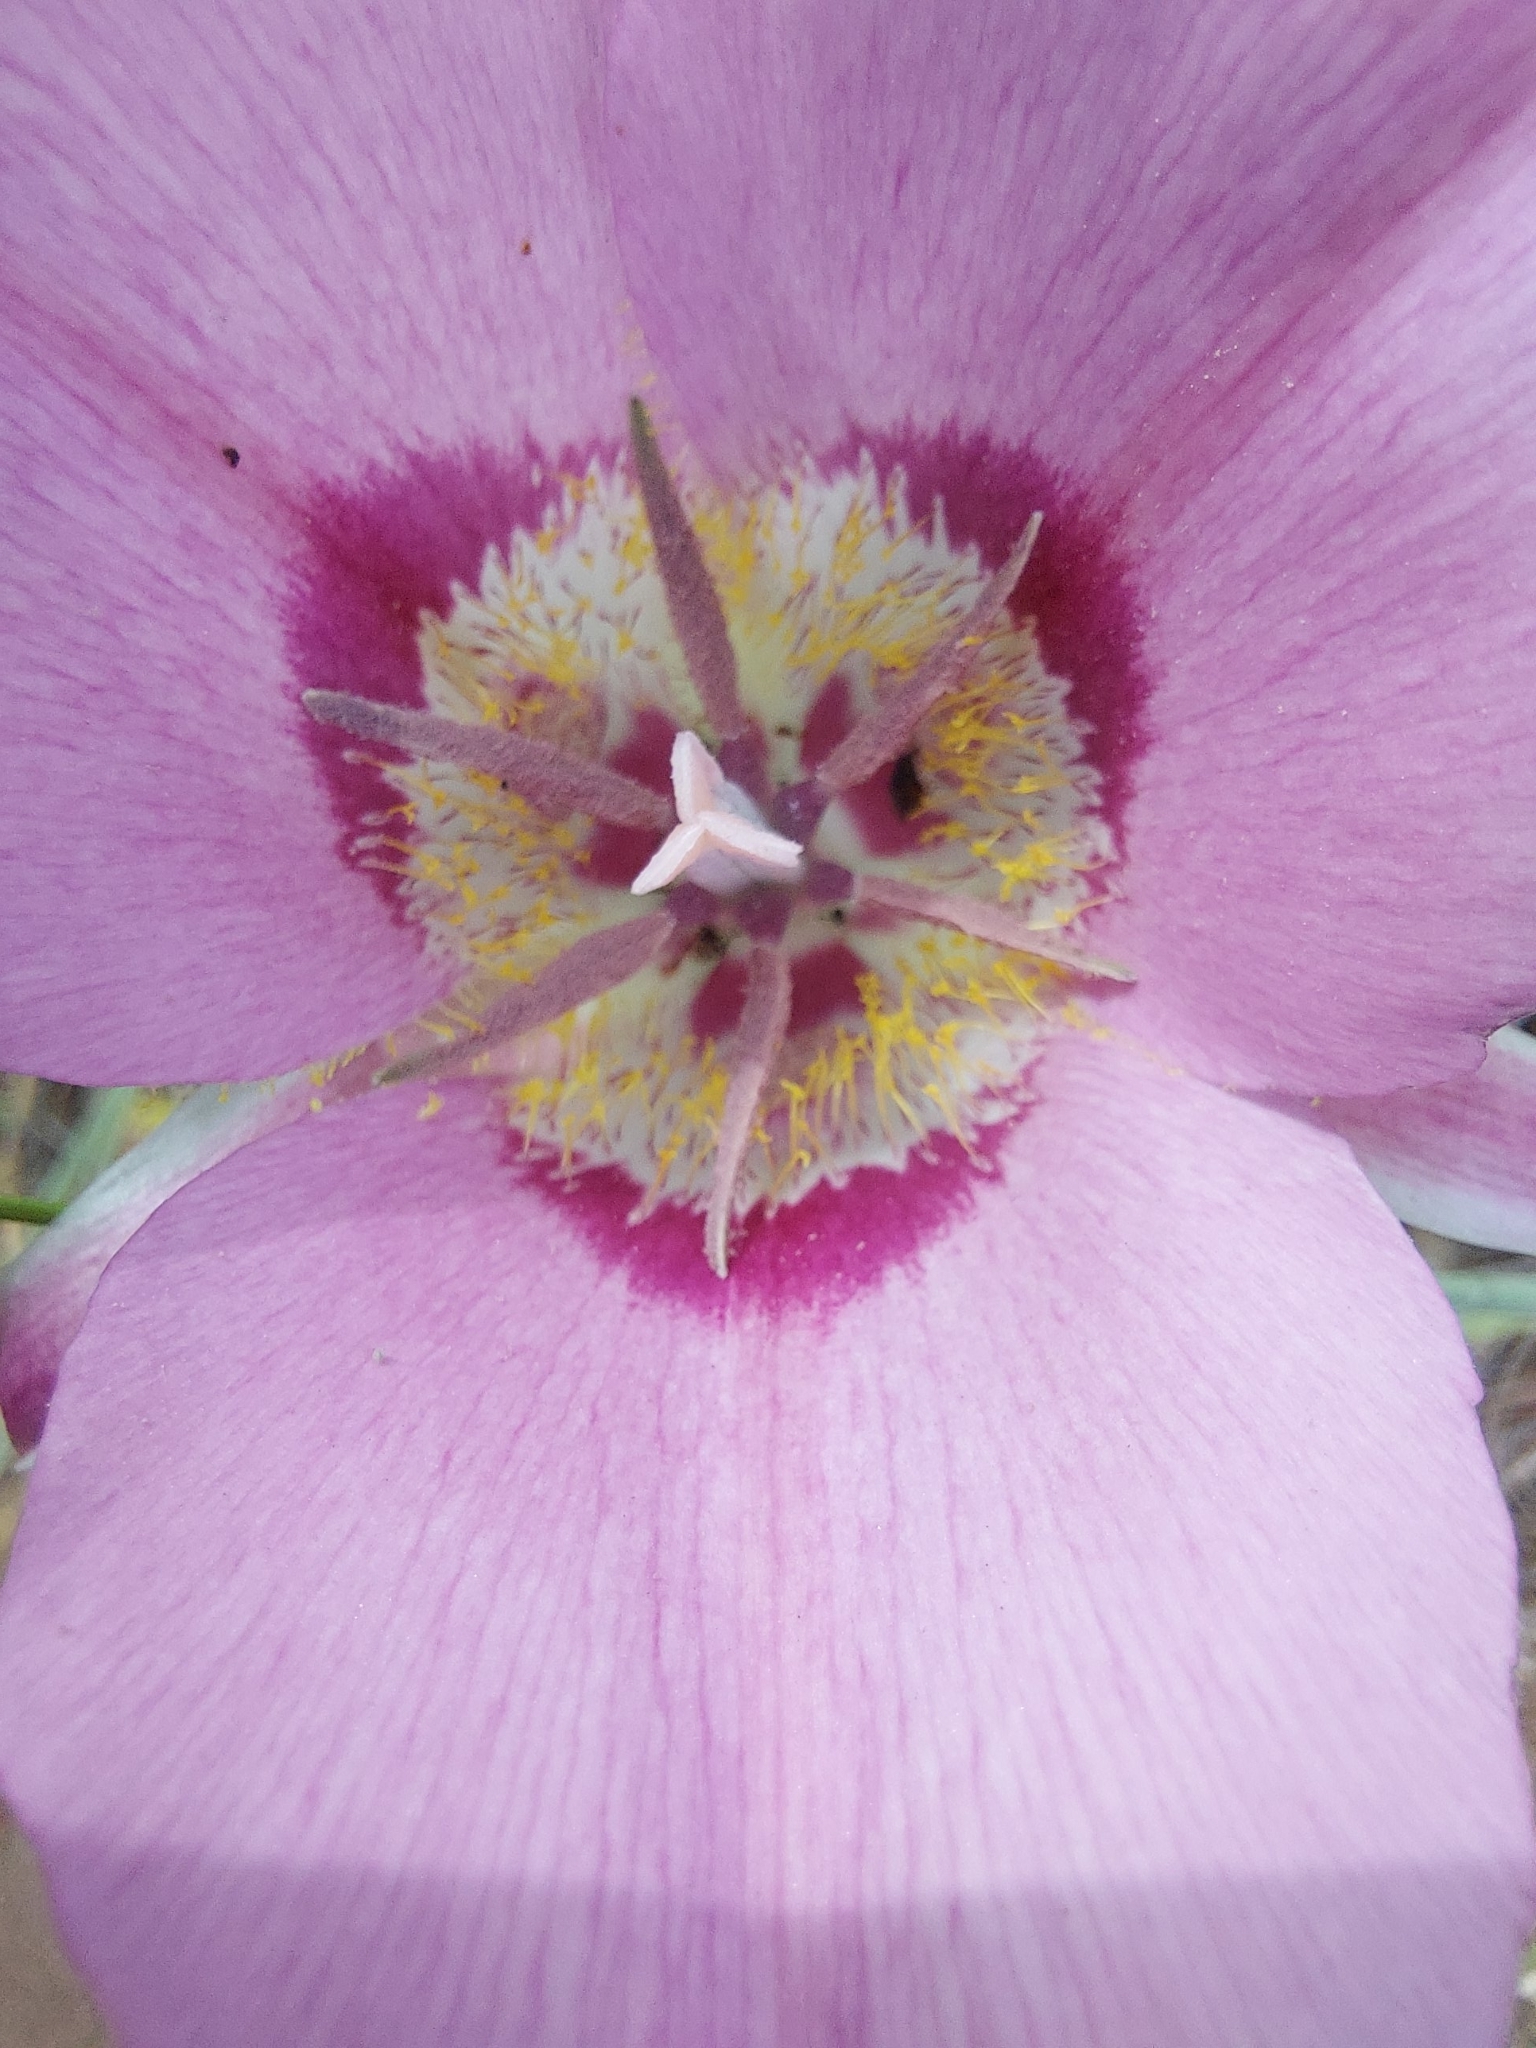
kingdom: Plantae
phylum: Tracheophyta
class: Liliopsida
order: Liliales
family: Liliaceae
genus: Calochortus
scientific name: Calochortus macrocarpus
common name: Green-band mariposa lily
